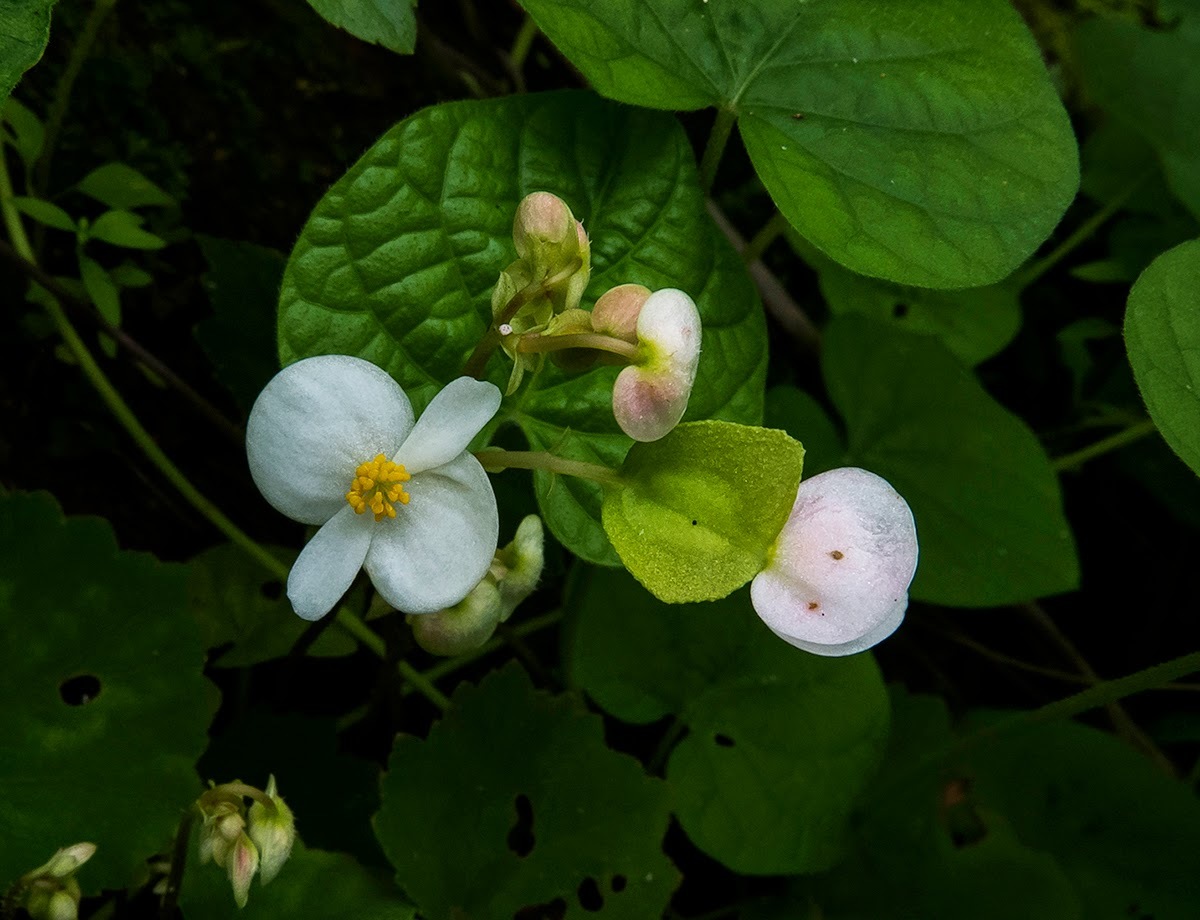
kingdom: Plantae
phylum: Tracheophyta
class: Magnoliopsida
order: Cucurbitales
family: Begoniaceae
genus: Begonia
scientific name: Begonia concanensis
